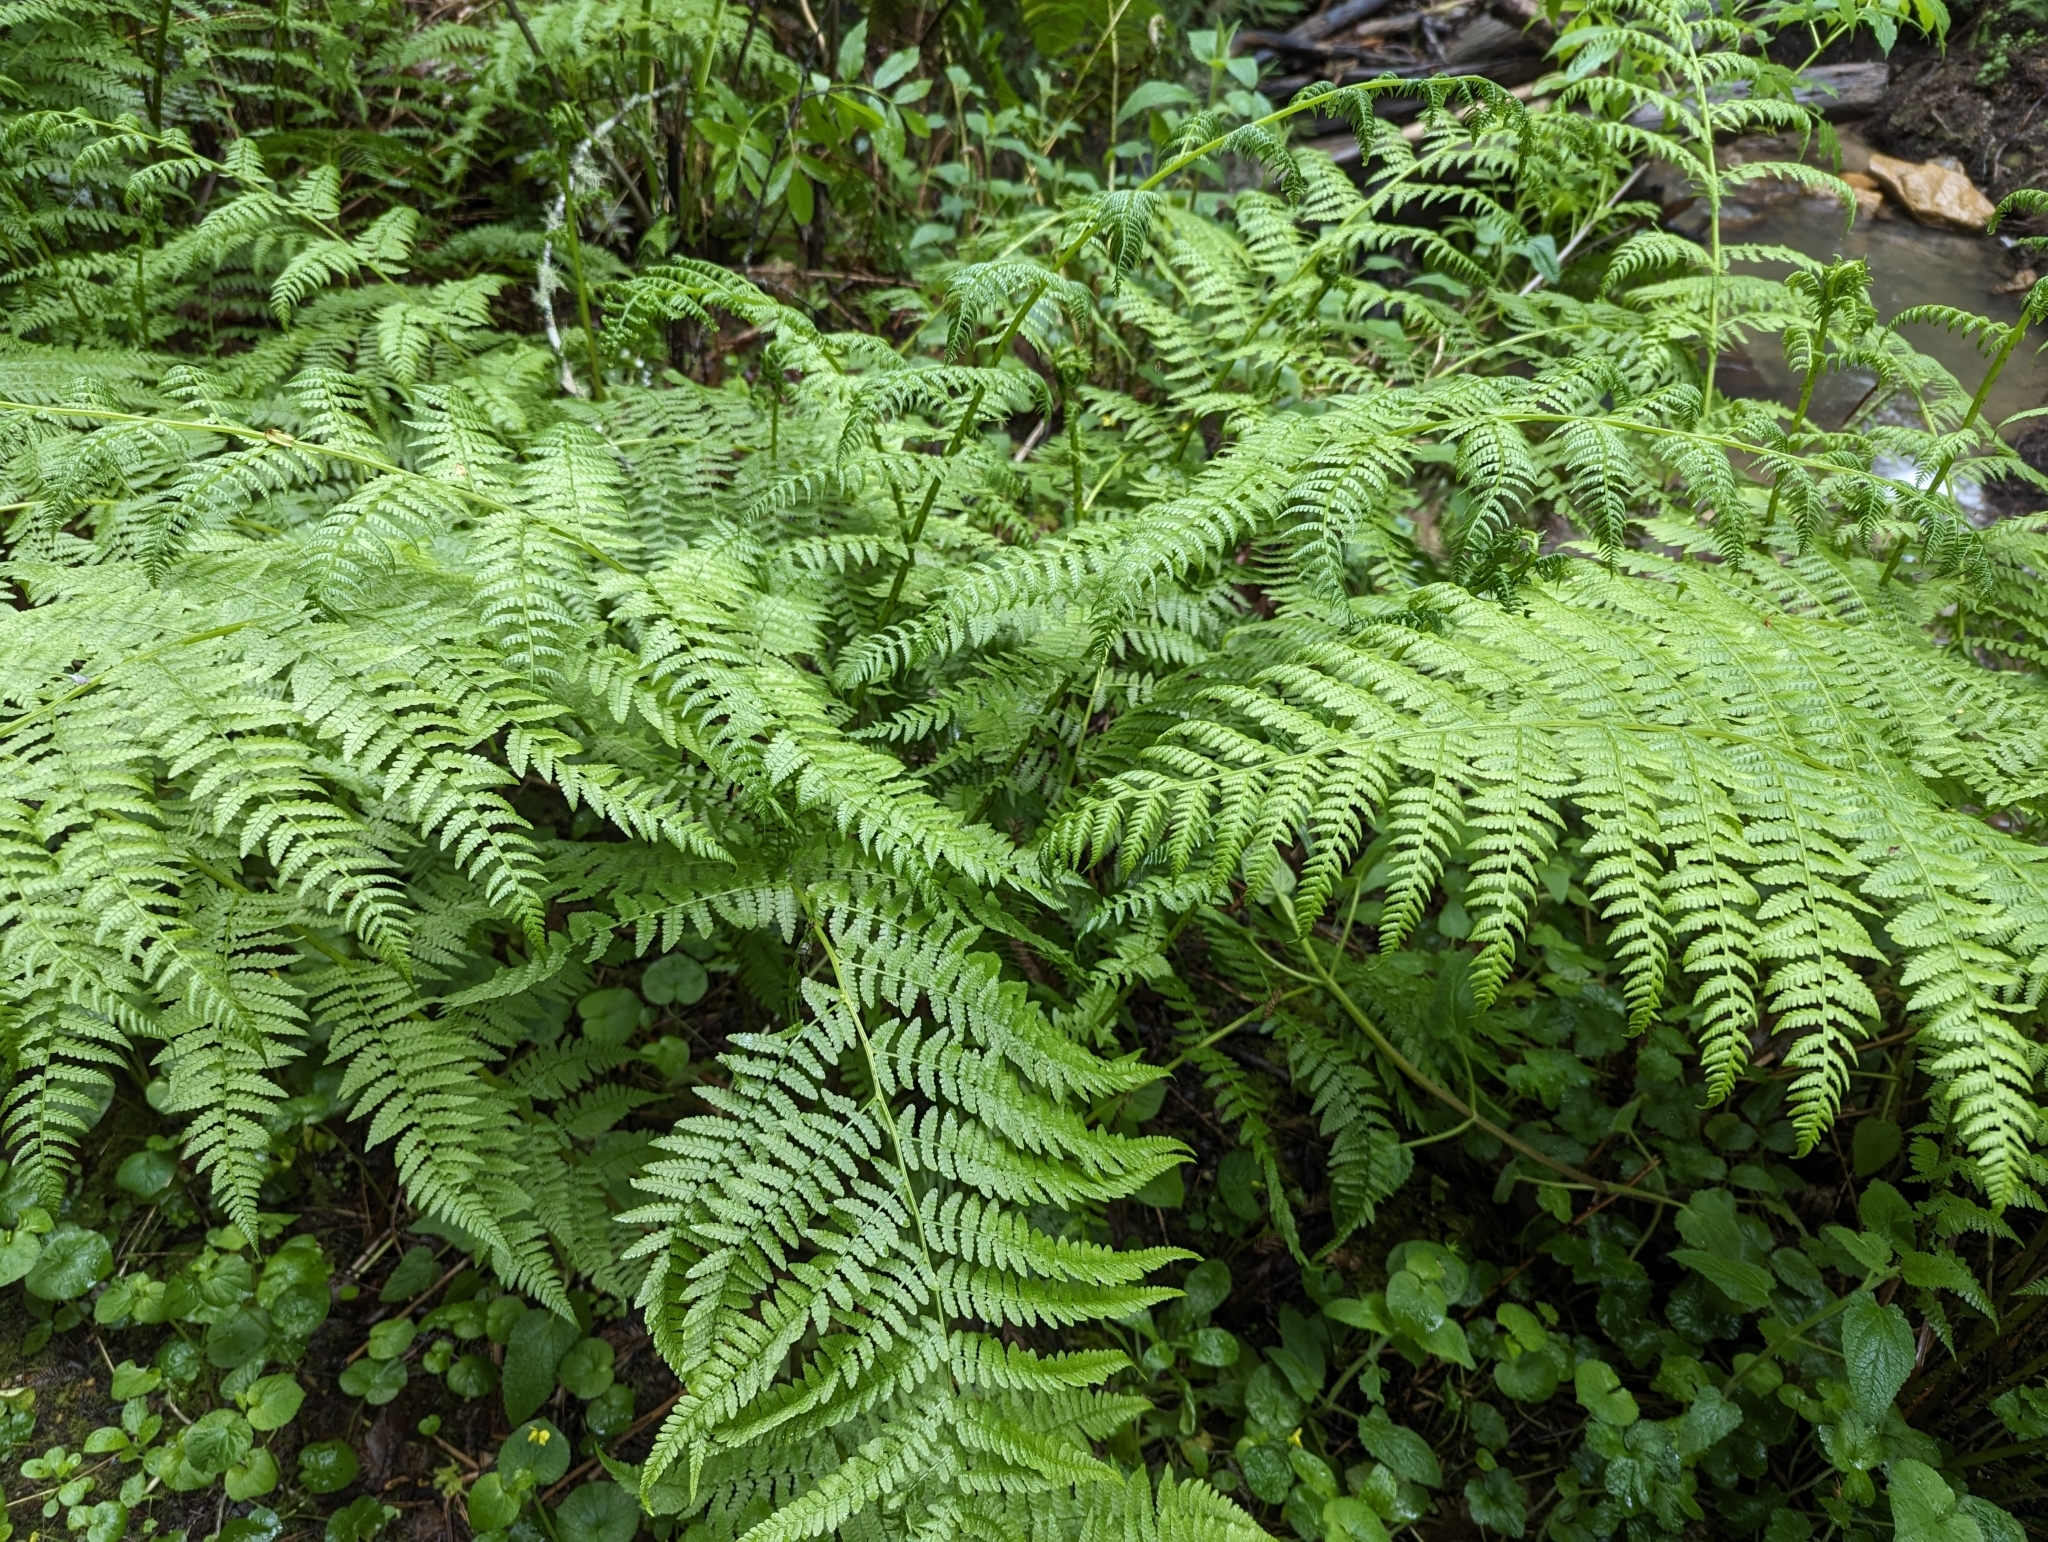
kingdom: Plantae
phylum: Tracheophyta
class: Polypodiopsida
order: Polypodiales
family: Athyriaceae
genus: Athyrium
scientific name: Athyrium filix-femina
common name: Lady fern
